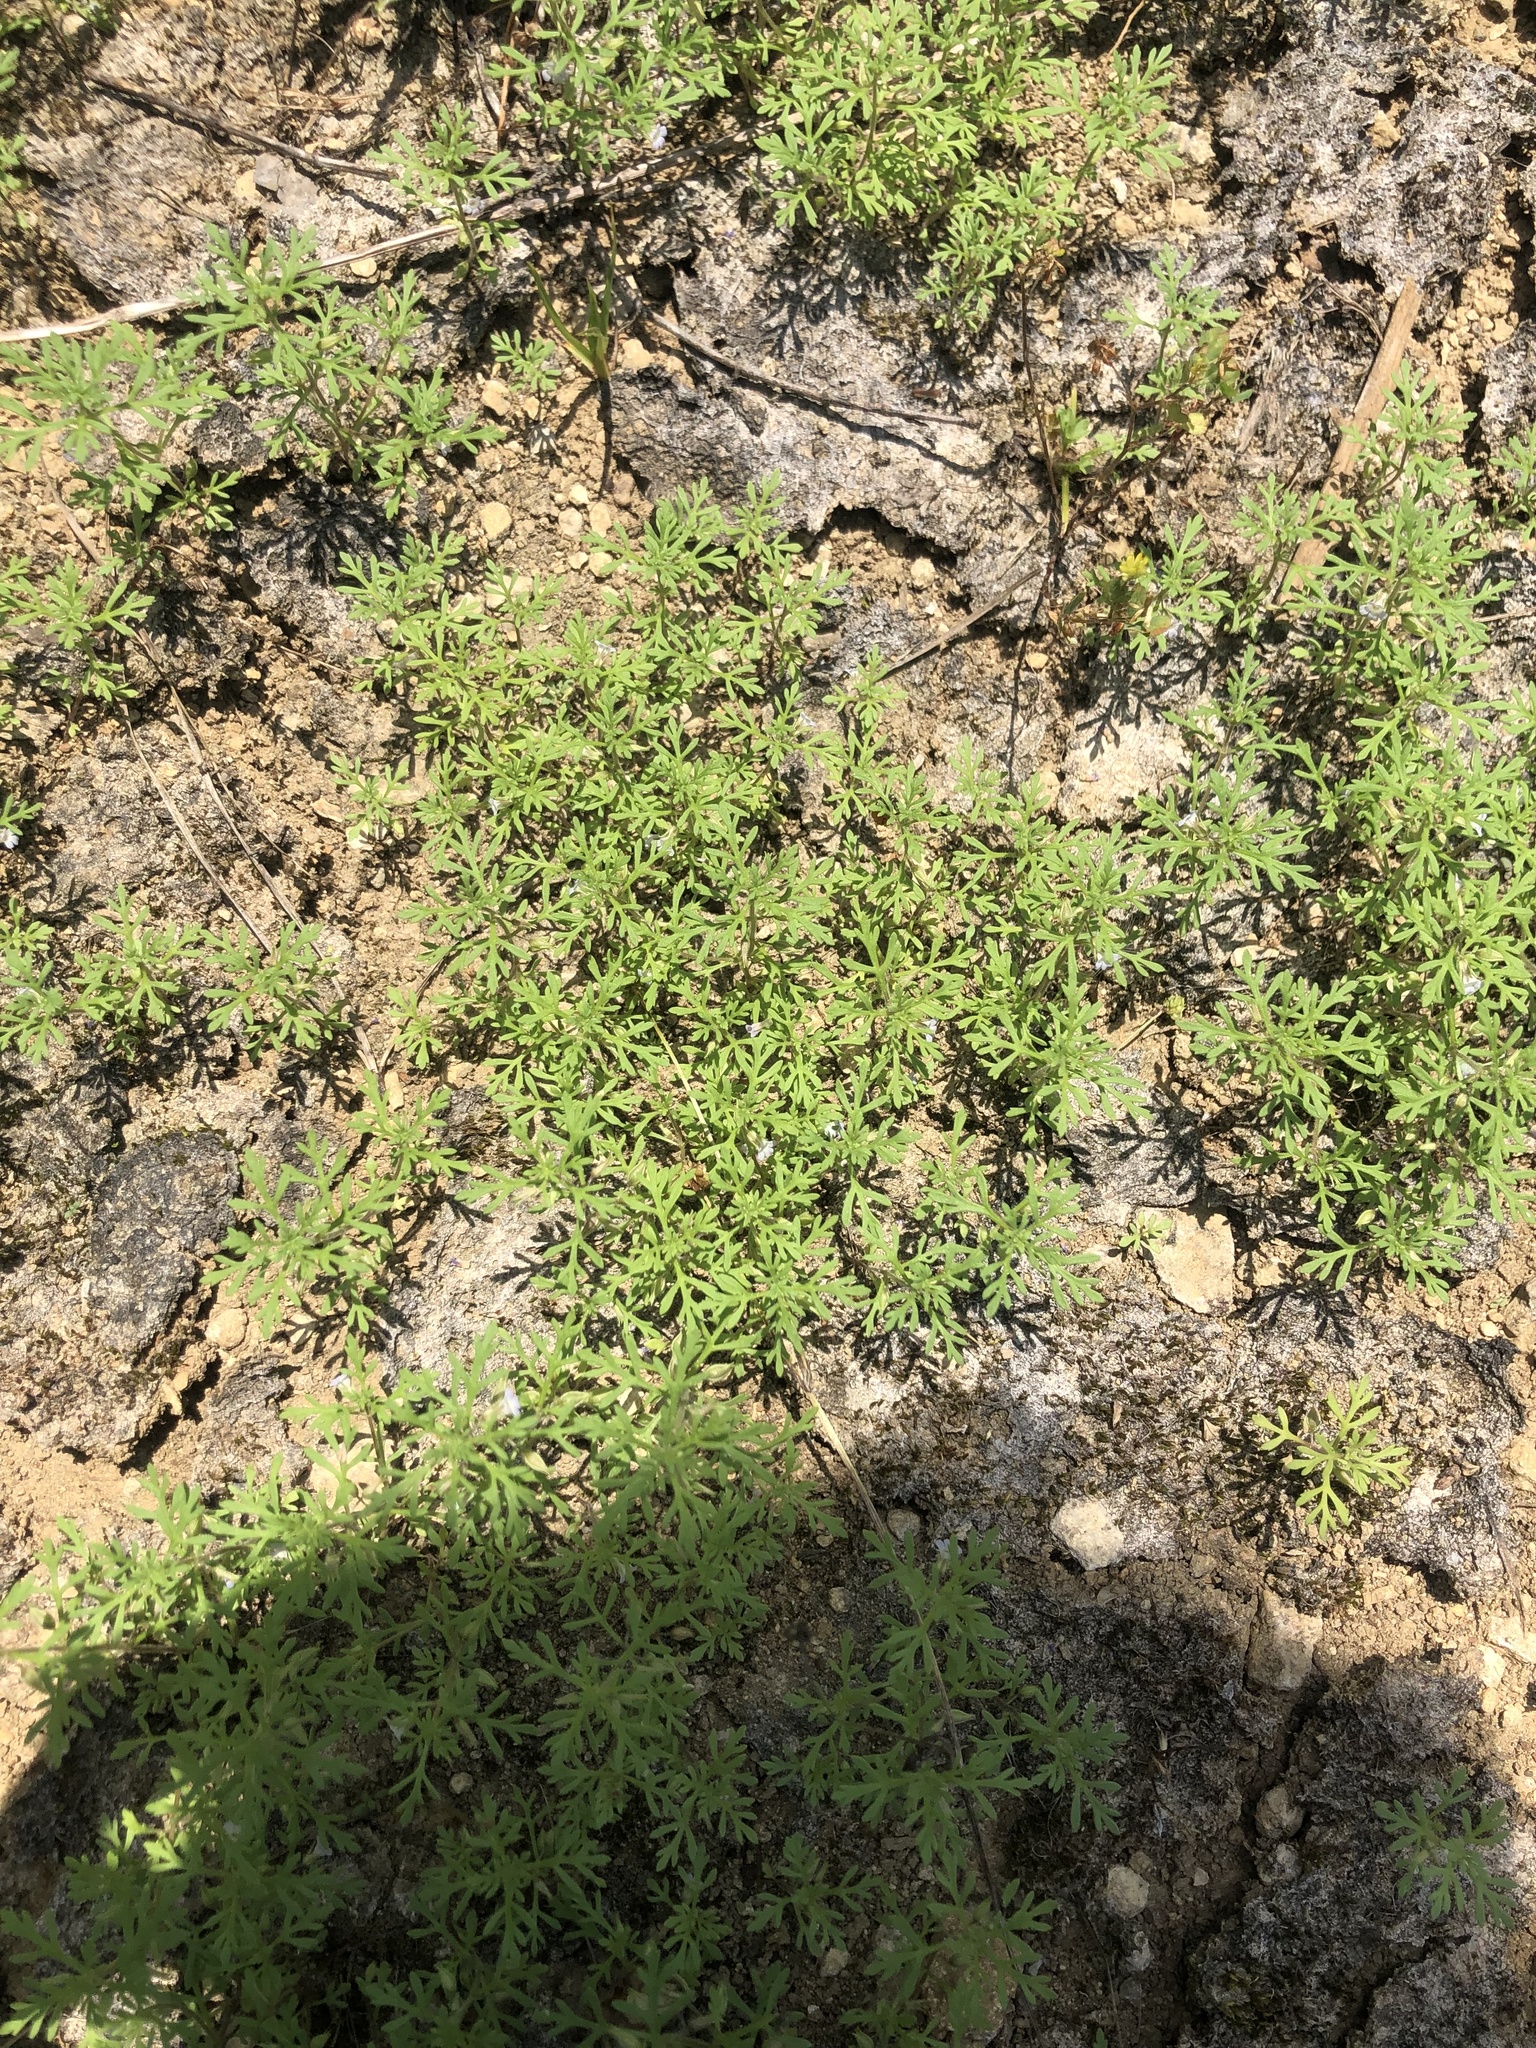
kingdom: Plantae
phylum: Tracheophyta
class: Magnoliopsida
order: Lamiales
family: Plantaginaceae
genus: Leucospora
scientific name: Leucospora multifida
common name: Narrow-leaf paleseed
